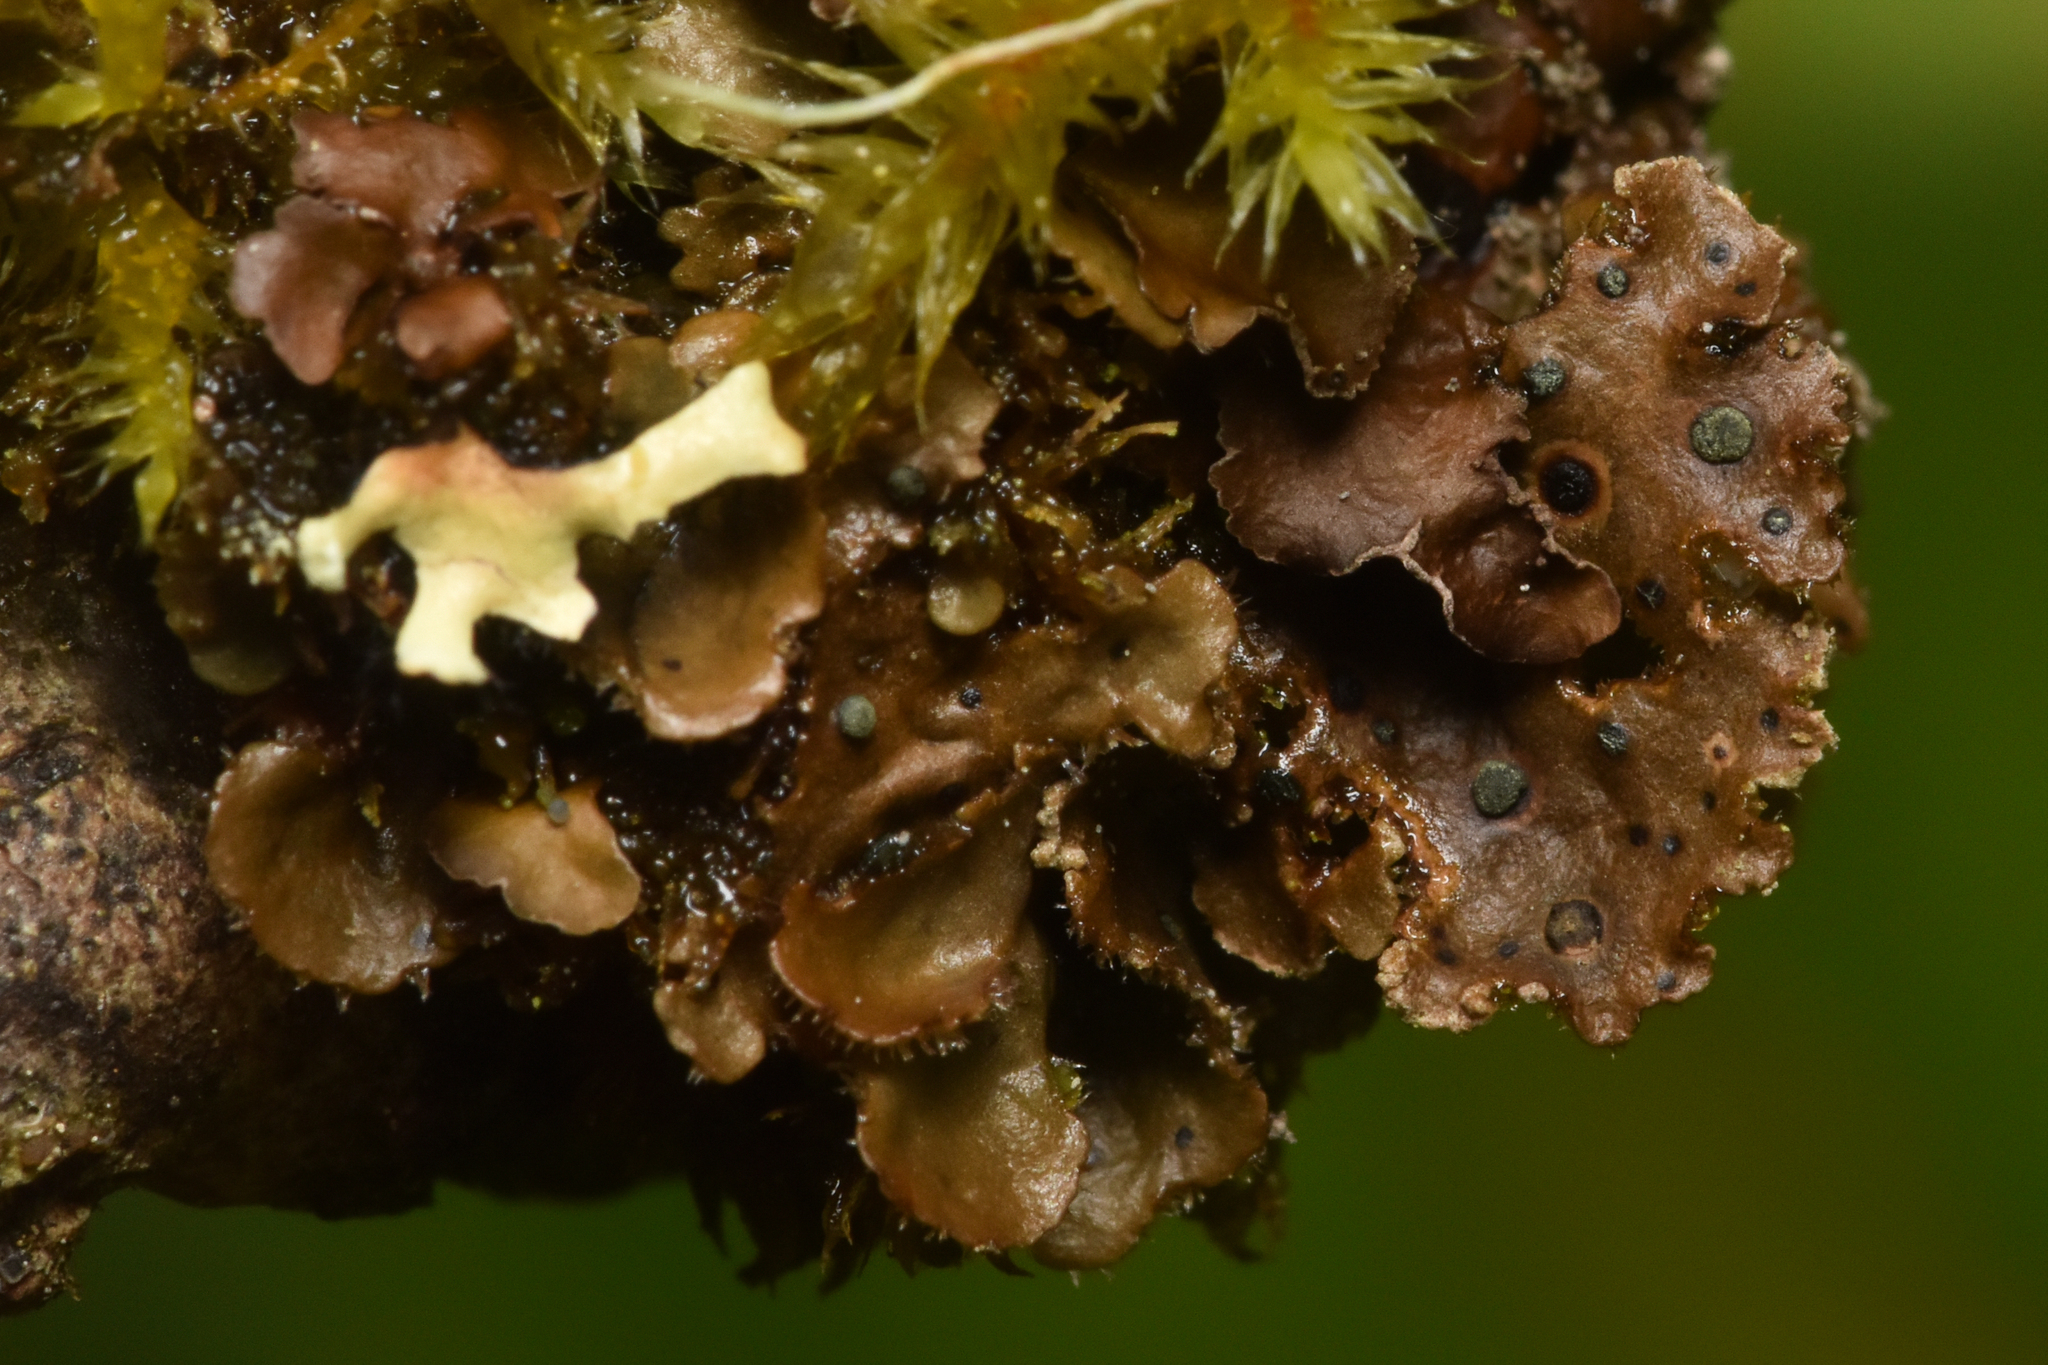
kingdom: Fungi
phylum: Ascomycota
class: Dothideomycetes
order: Abrothallales
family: Abrothallaceae
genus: Abrothallus
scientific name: Abrothallus welwitschii
